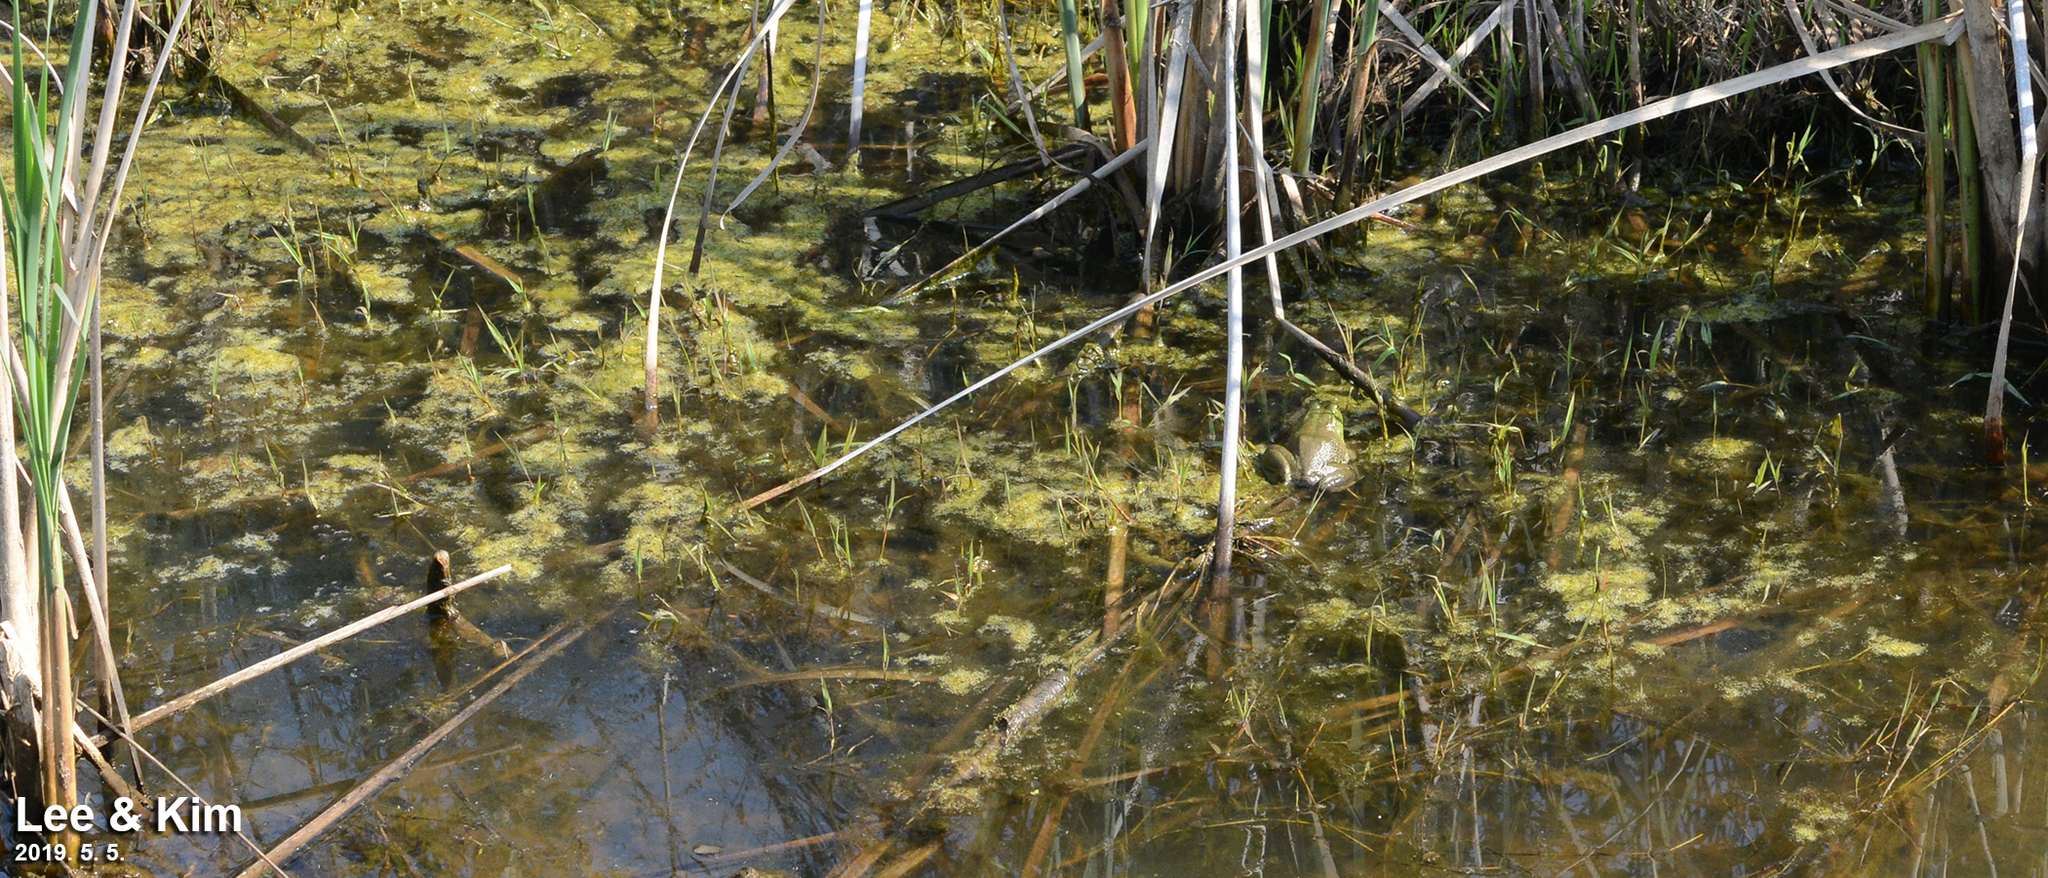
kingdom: Animalia
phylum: Chordata
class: Amphibia
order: Anura
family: Ranidae
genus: Lithobates
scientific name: Lithobates catesbeianus
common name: American bullfrog
